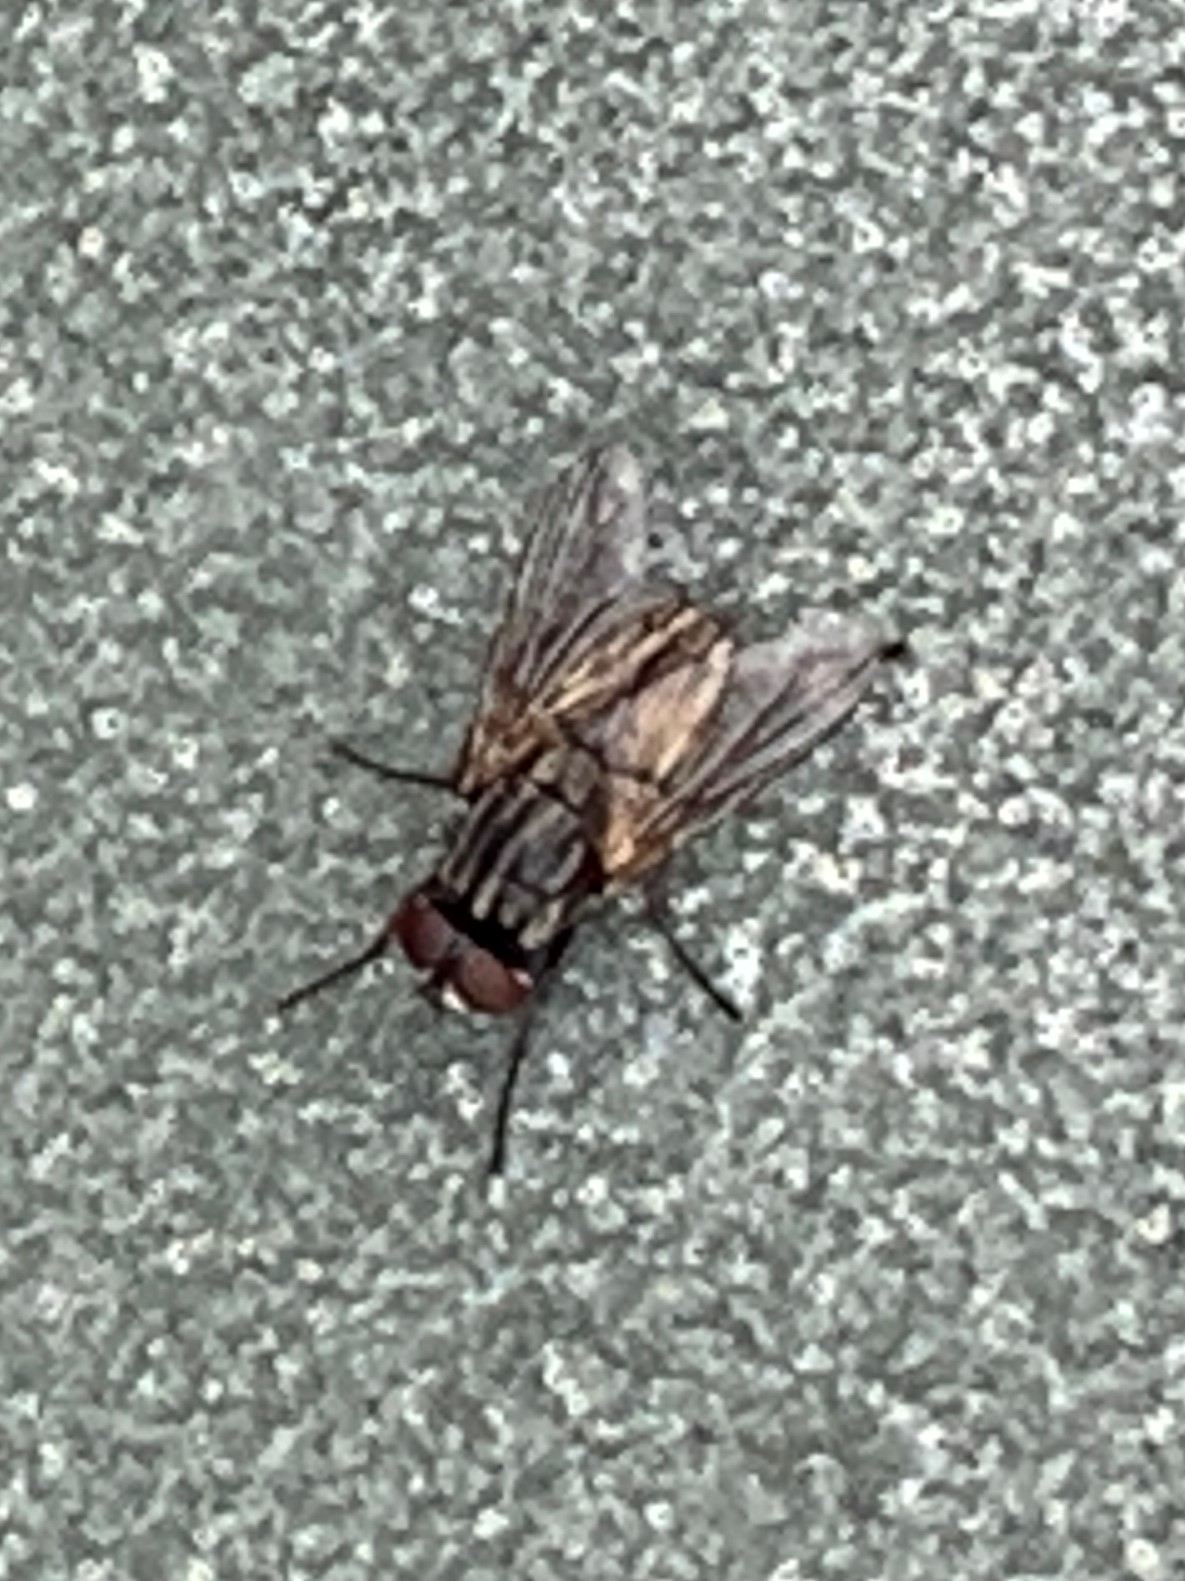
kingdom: Animalia
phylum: Arthropoda
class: Insecta
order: Diptera
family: Muscidae
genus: Musca
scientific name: Musca domestica
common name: House fly
